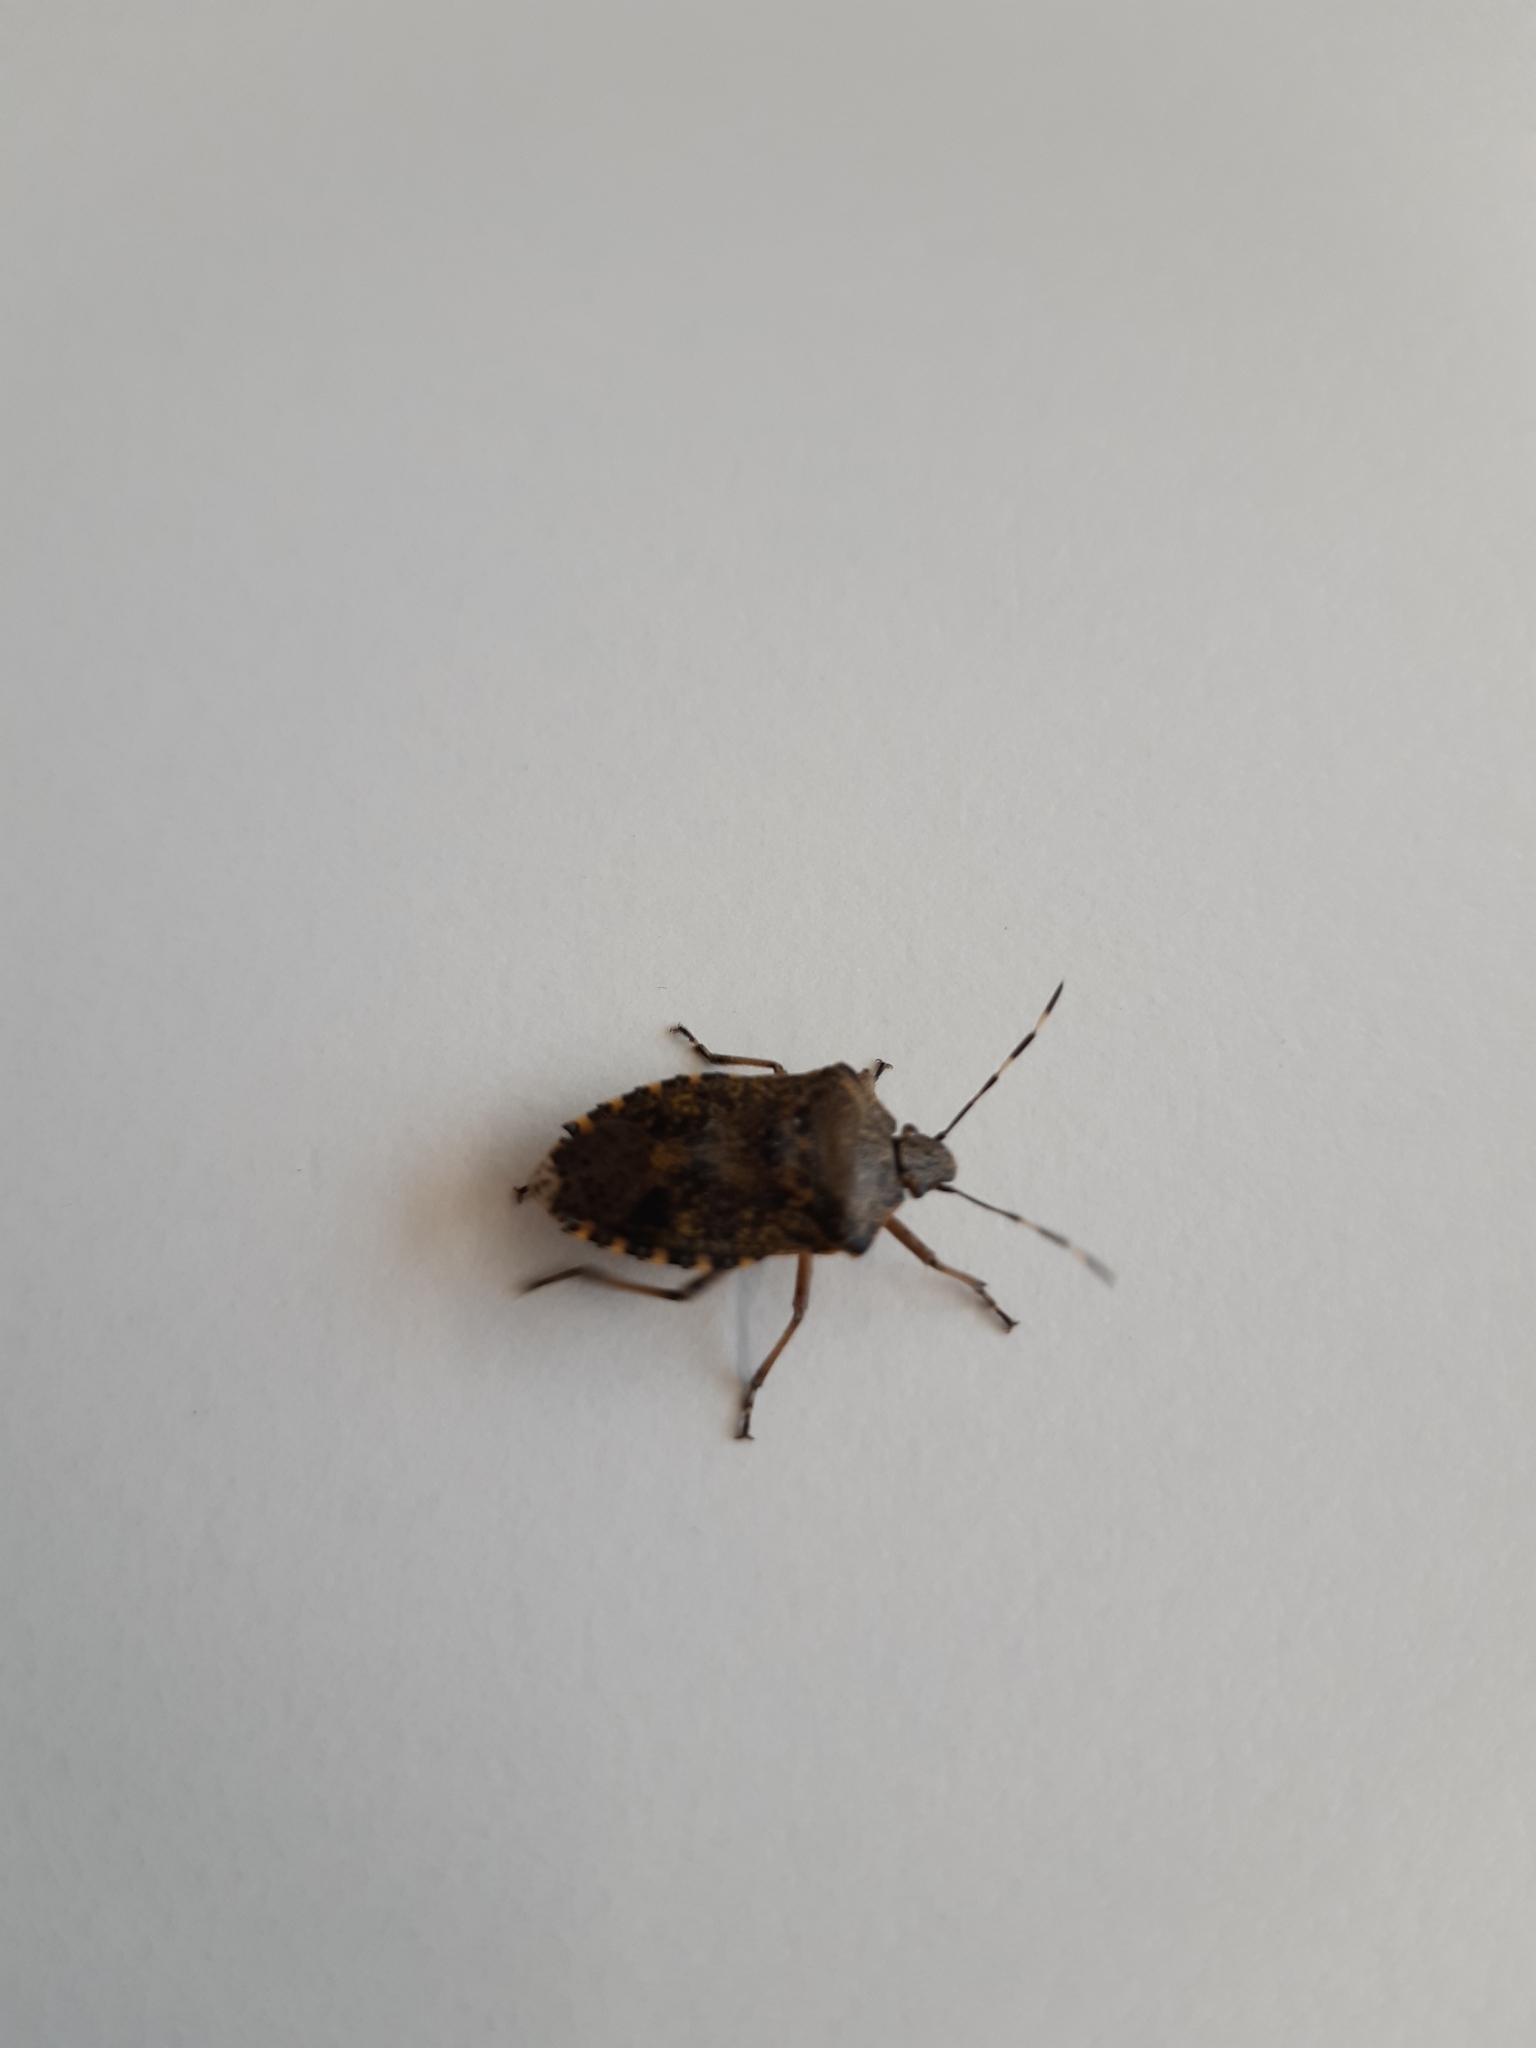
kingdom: Animalia
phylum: Arthropoda
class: Insecta
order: Hemiptera
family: Pentatomidae
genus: Rhaphigaster
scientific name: Rhaphigaster nebulosa
